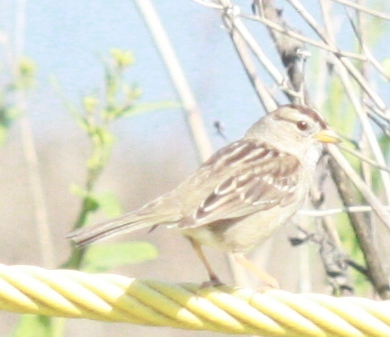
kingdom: Animalia
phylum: Chordata
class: Aves
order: Passeriformes
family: Passerellidae
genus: Zonotrichia
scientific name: Zonotrichia leucophrys
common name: White-crowned sparrow
